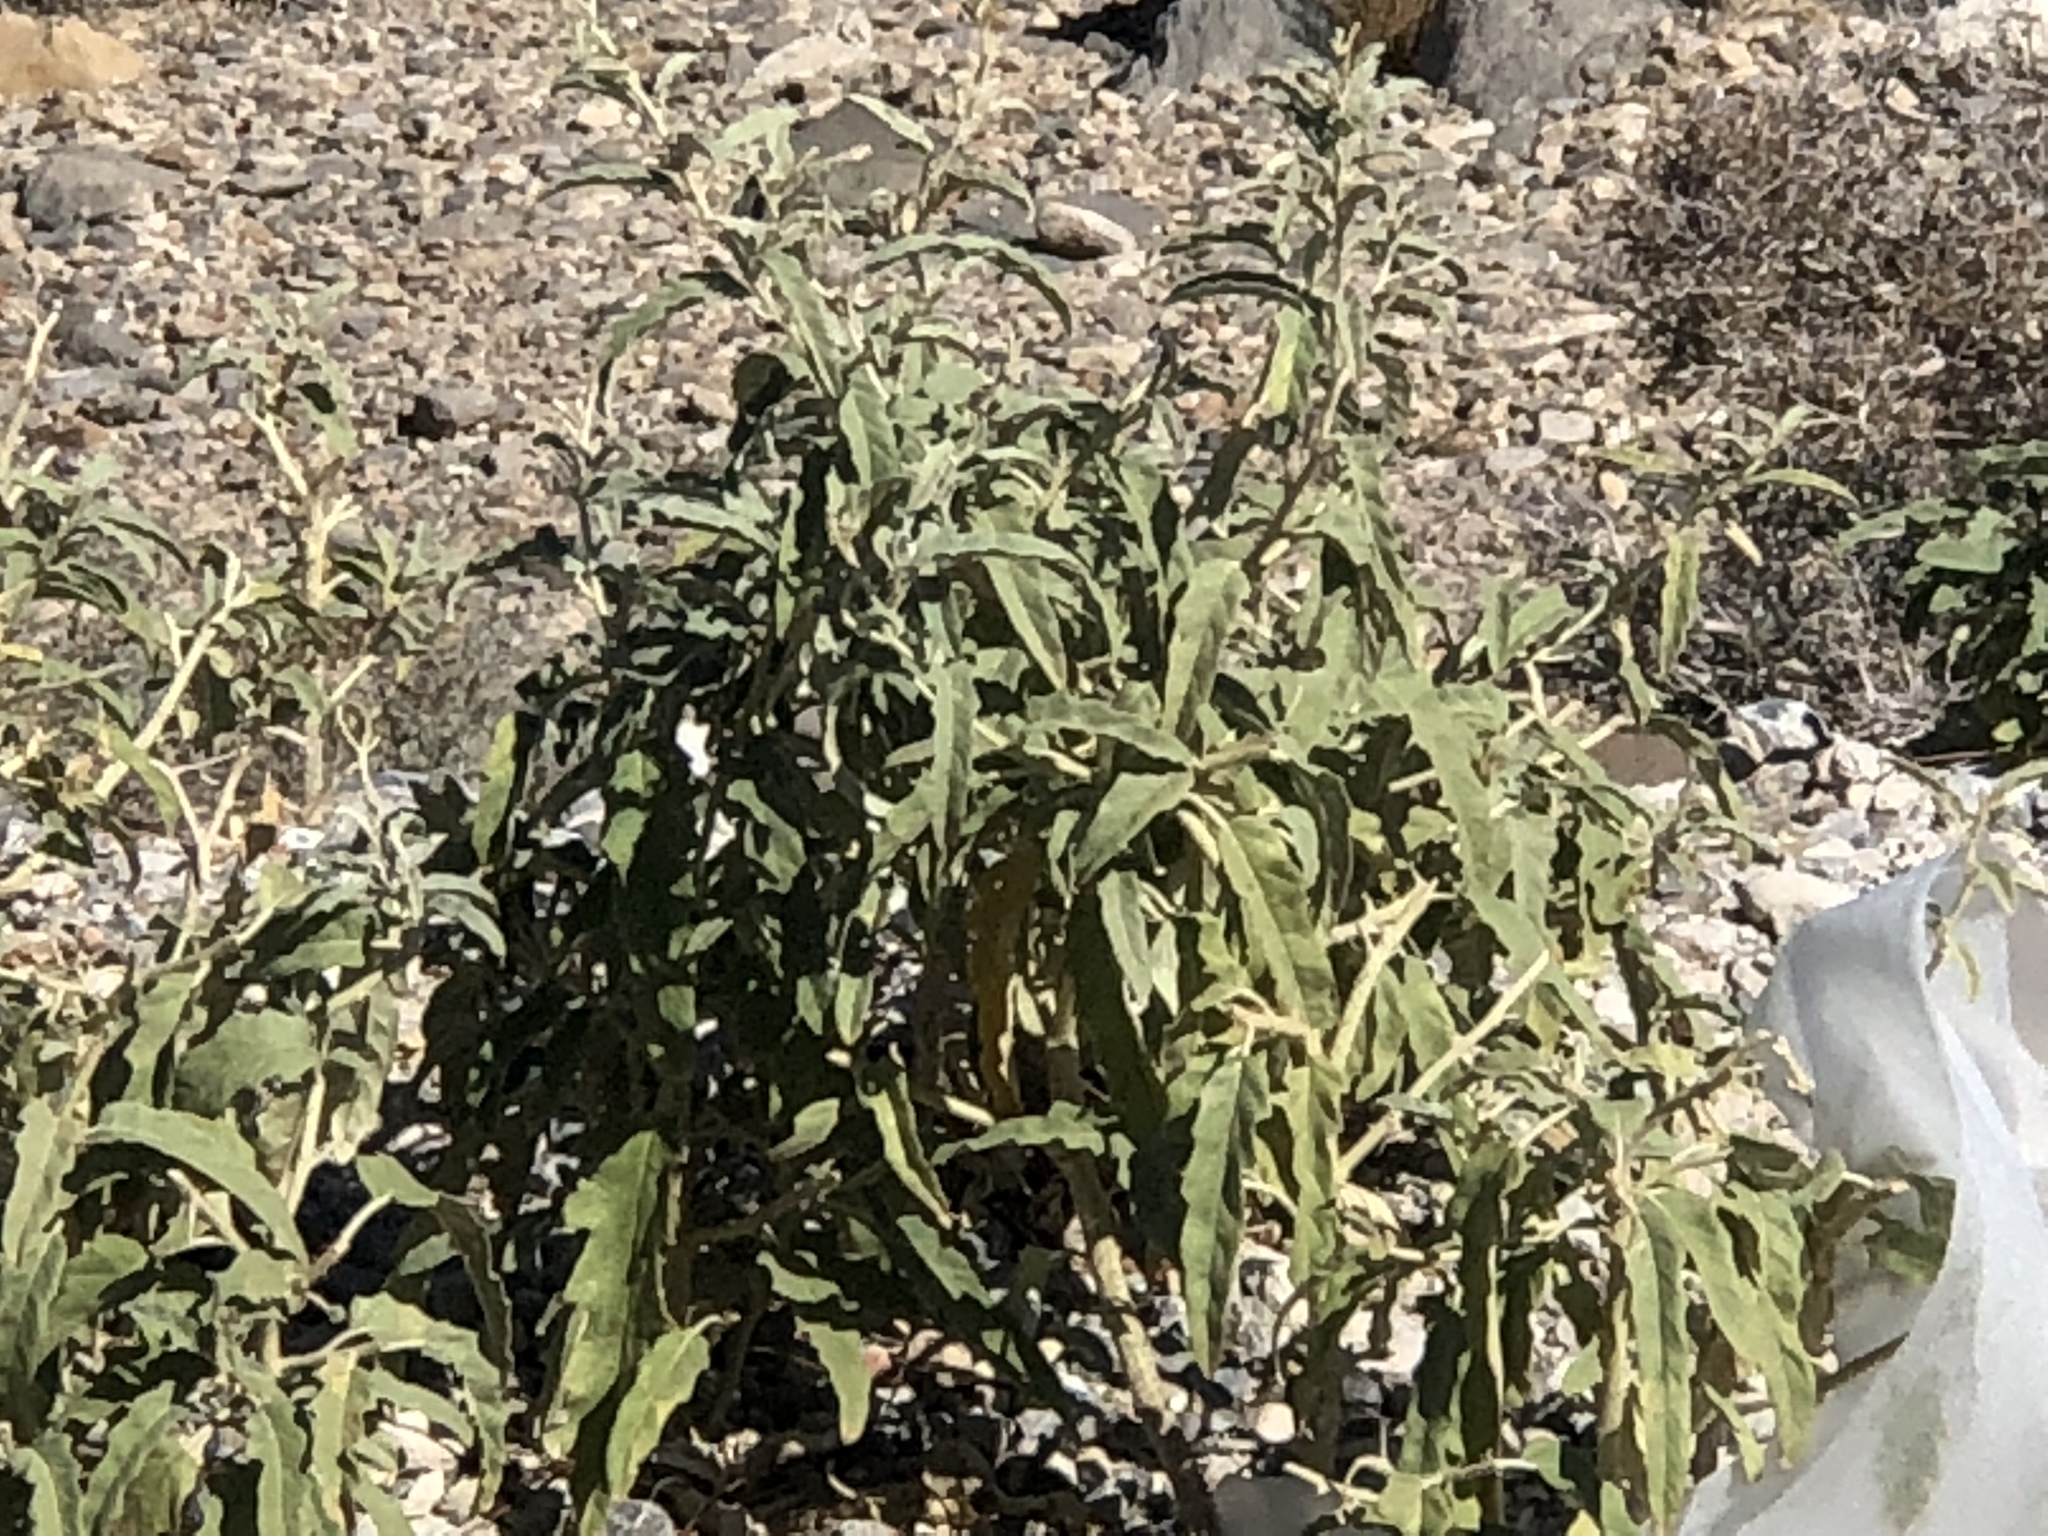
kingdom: Plantae
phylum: Tracheophyta
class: Magnoliopsida
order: Solanales
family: Solanaceae
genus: Solanum
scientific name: Solanum elaeagnifolium
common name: Silverleaf nightshade
